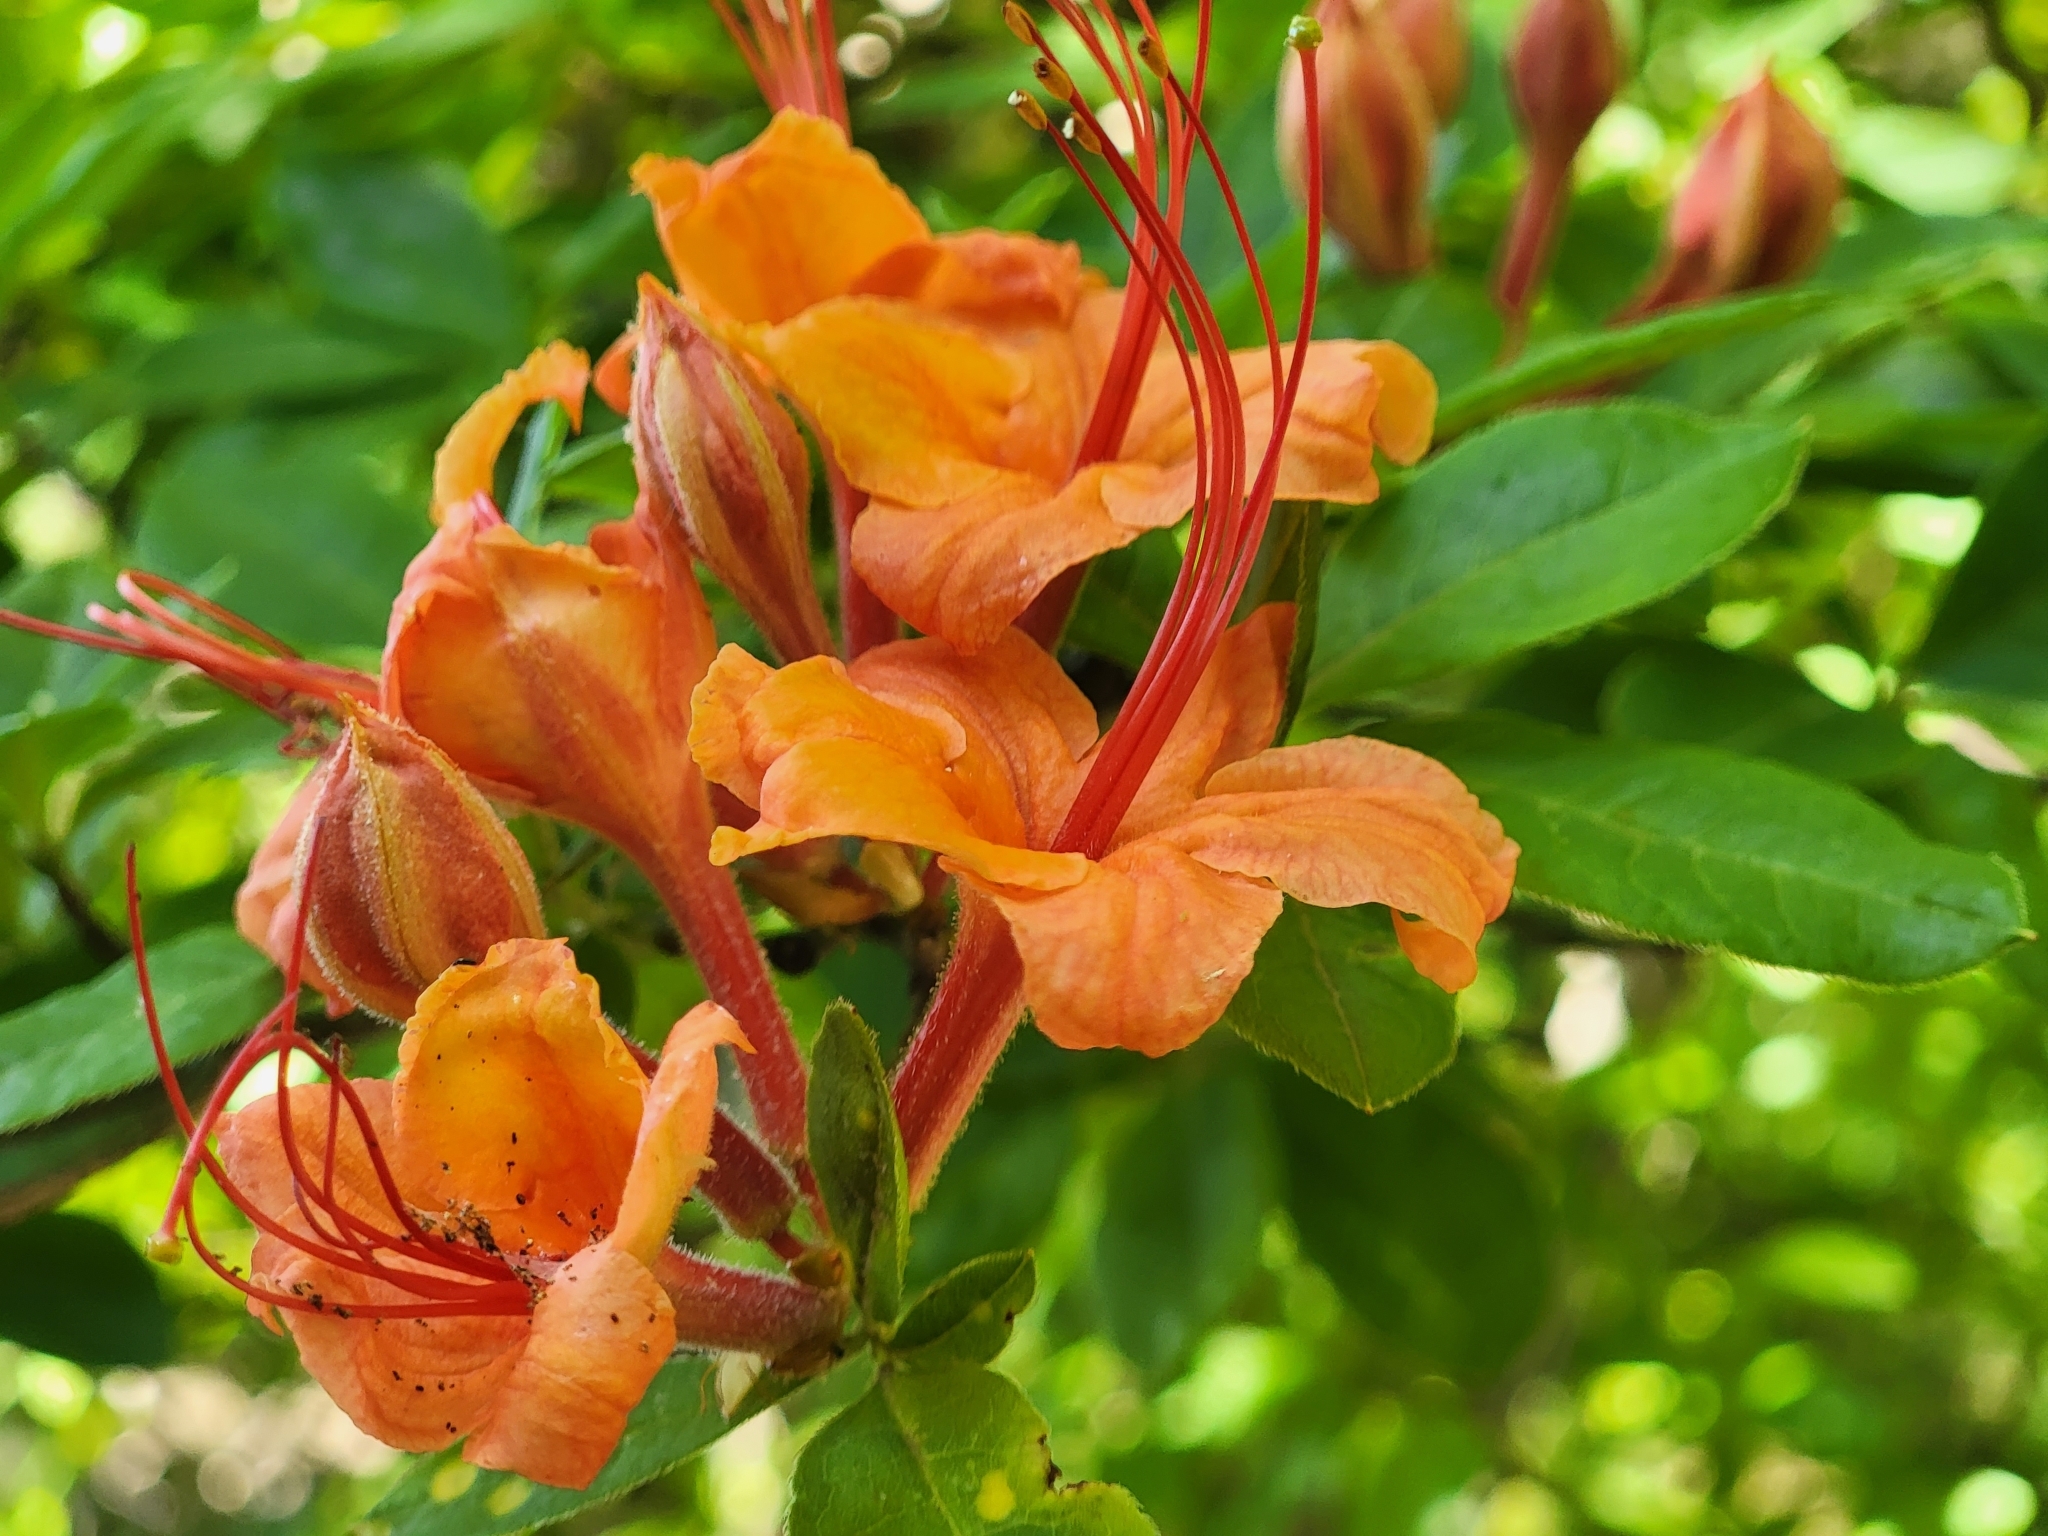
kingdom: Plantae
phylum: Tracheophyta
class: Magnoliopsida
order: Ericales
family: Ericaceae
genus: Rhododendron
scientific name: Rhododendron calendulaceum
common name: Flame azalea
